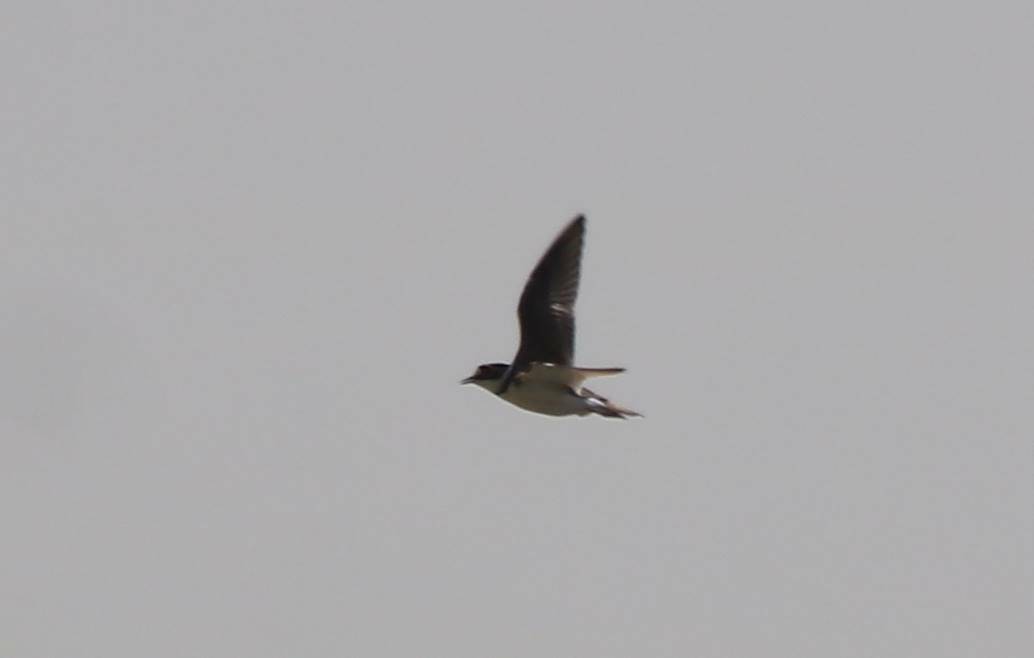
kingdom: Animalia
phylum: Chordata
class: Aves
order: Charadriiformes
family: Charadriidae
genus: Charadrius
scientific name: Charadrius dubius
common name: Little ringed plover
